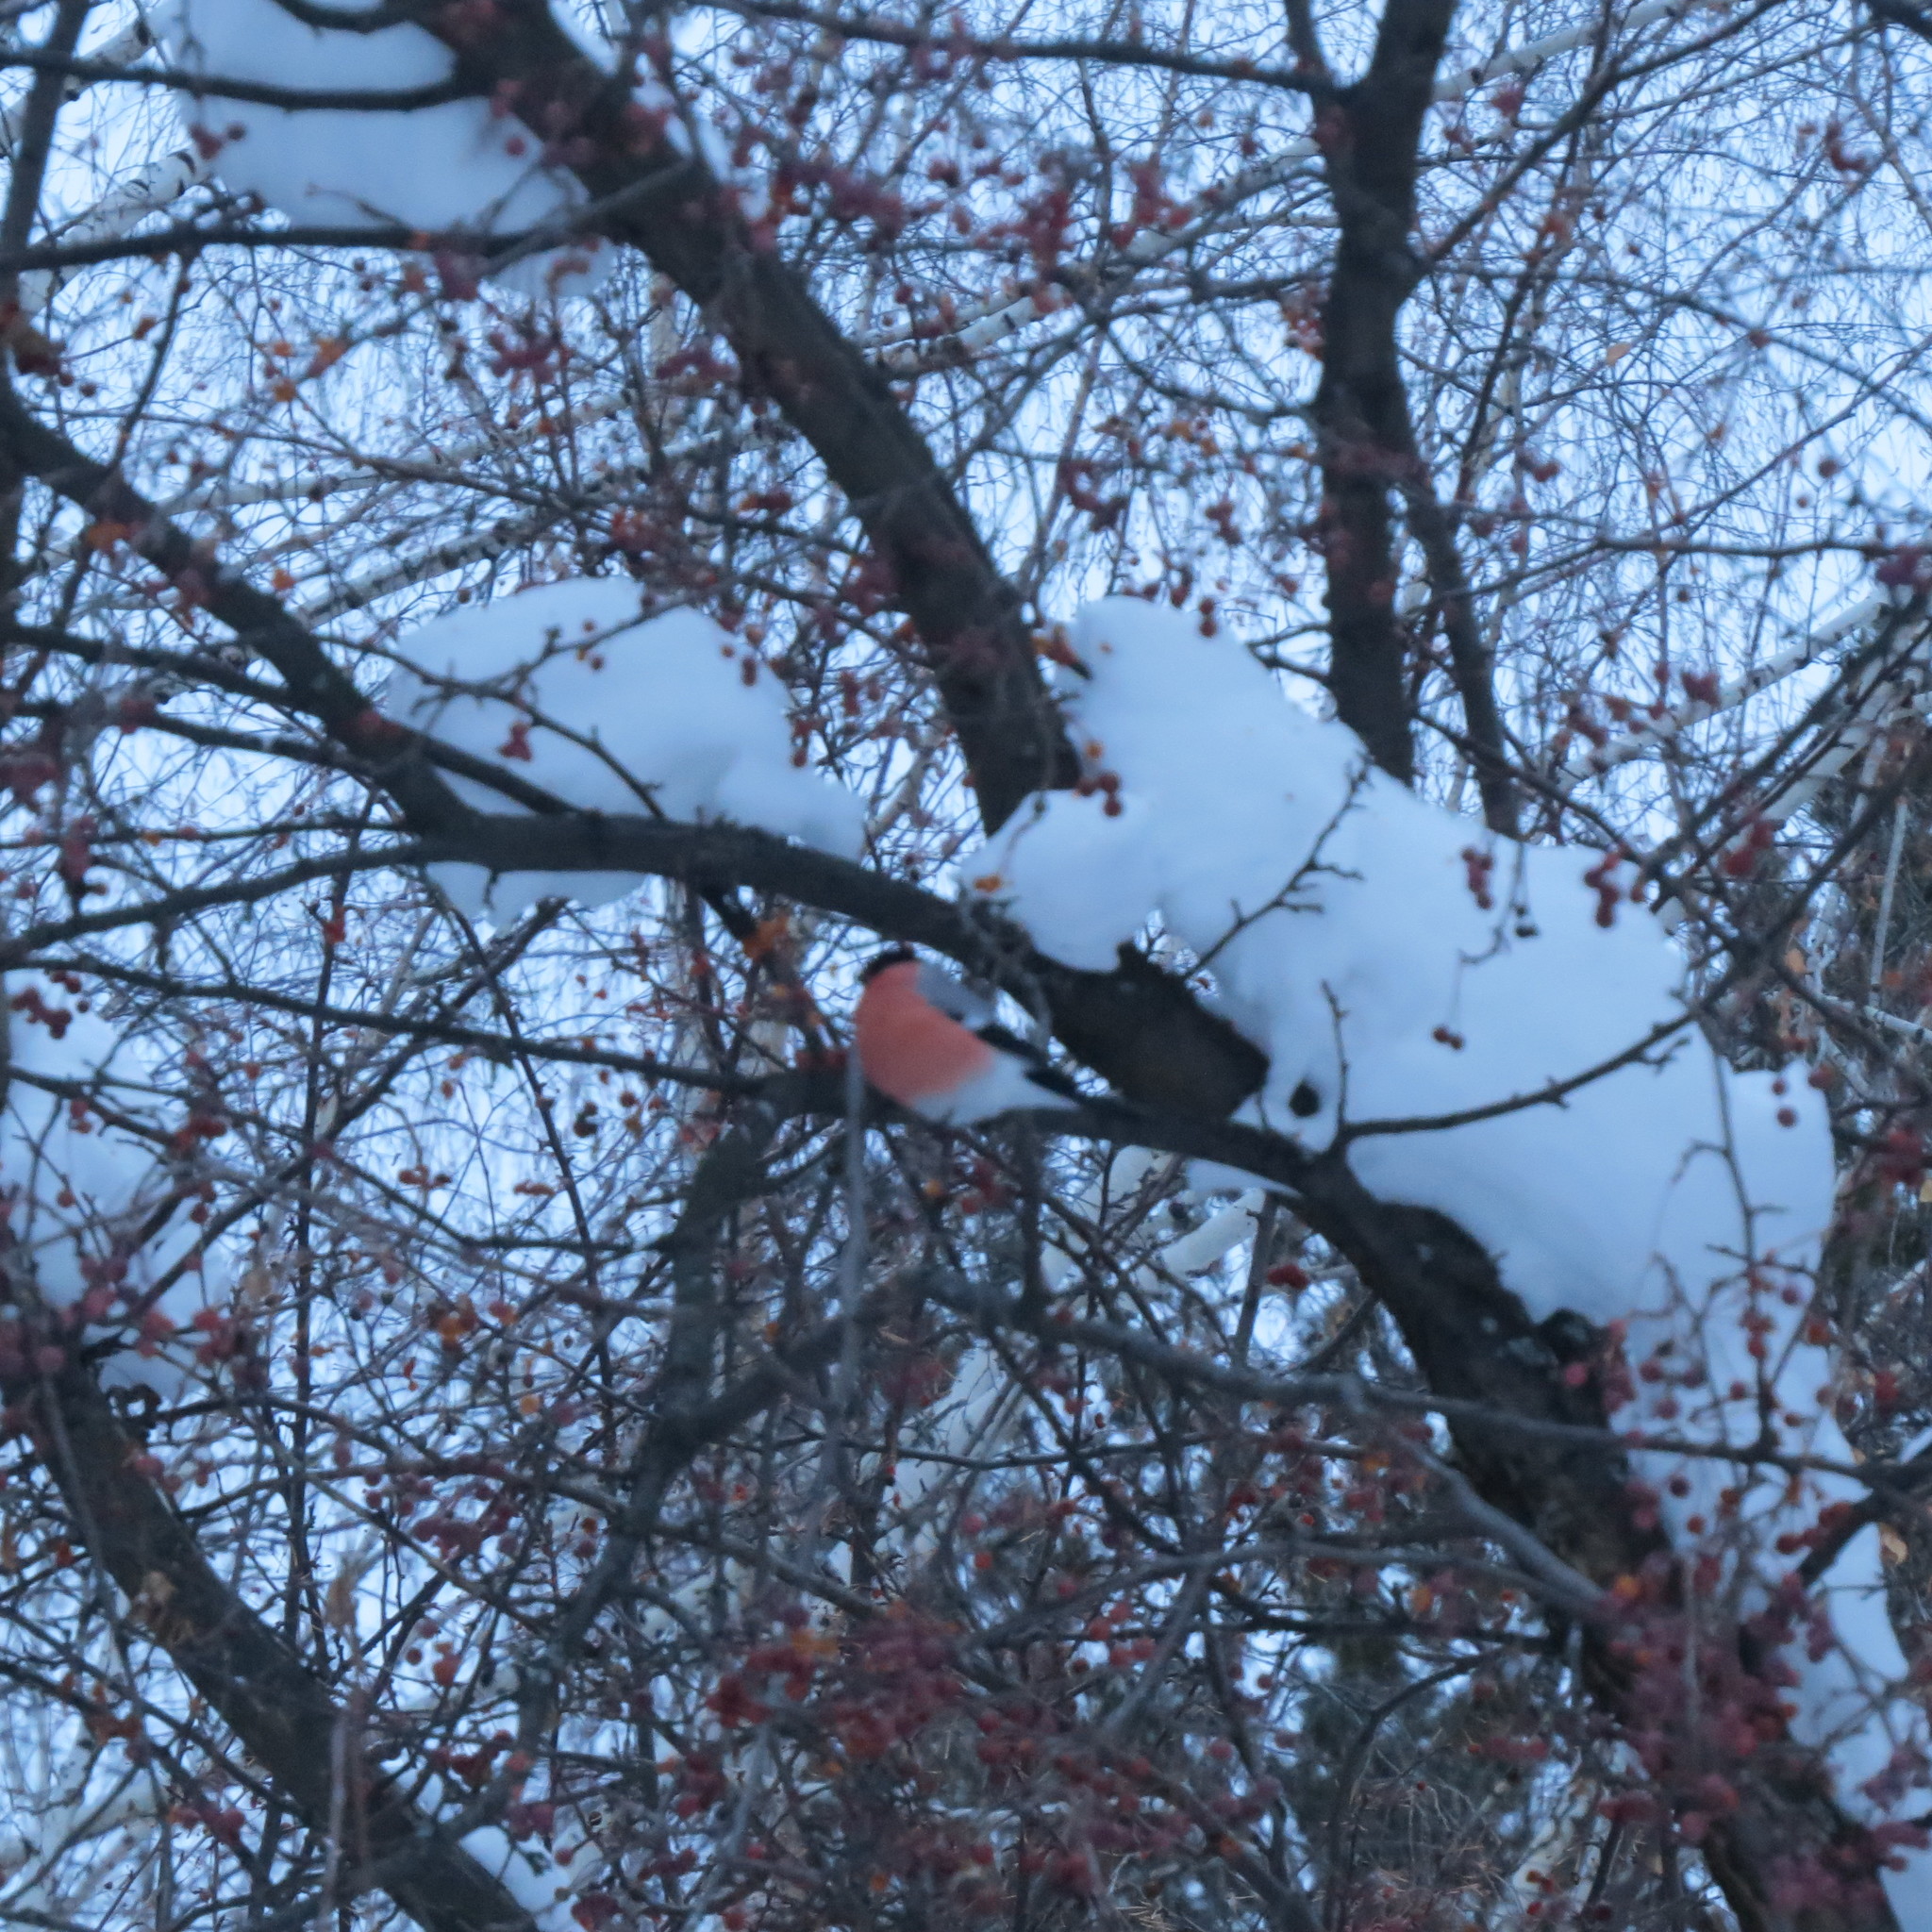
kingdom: Animalia
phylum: Chordata
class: Aves
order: Passeriformes
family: Fringillidae
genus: Pyrrhula
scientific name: Pyrrhula pyrrhula
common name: Eurasian bullfinch
